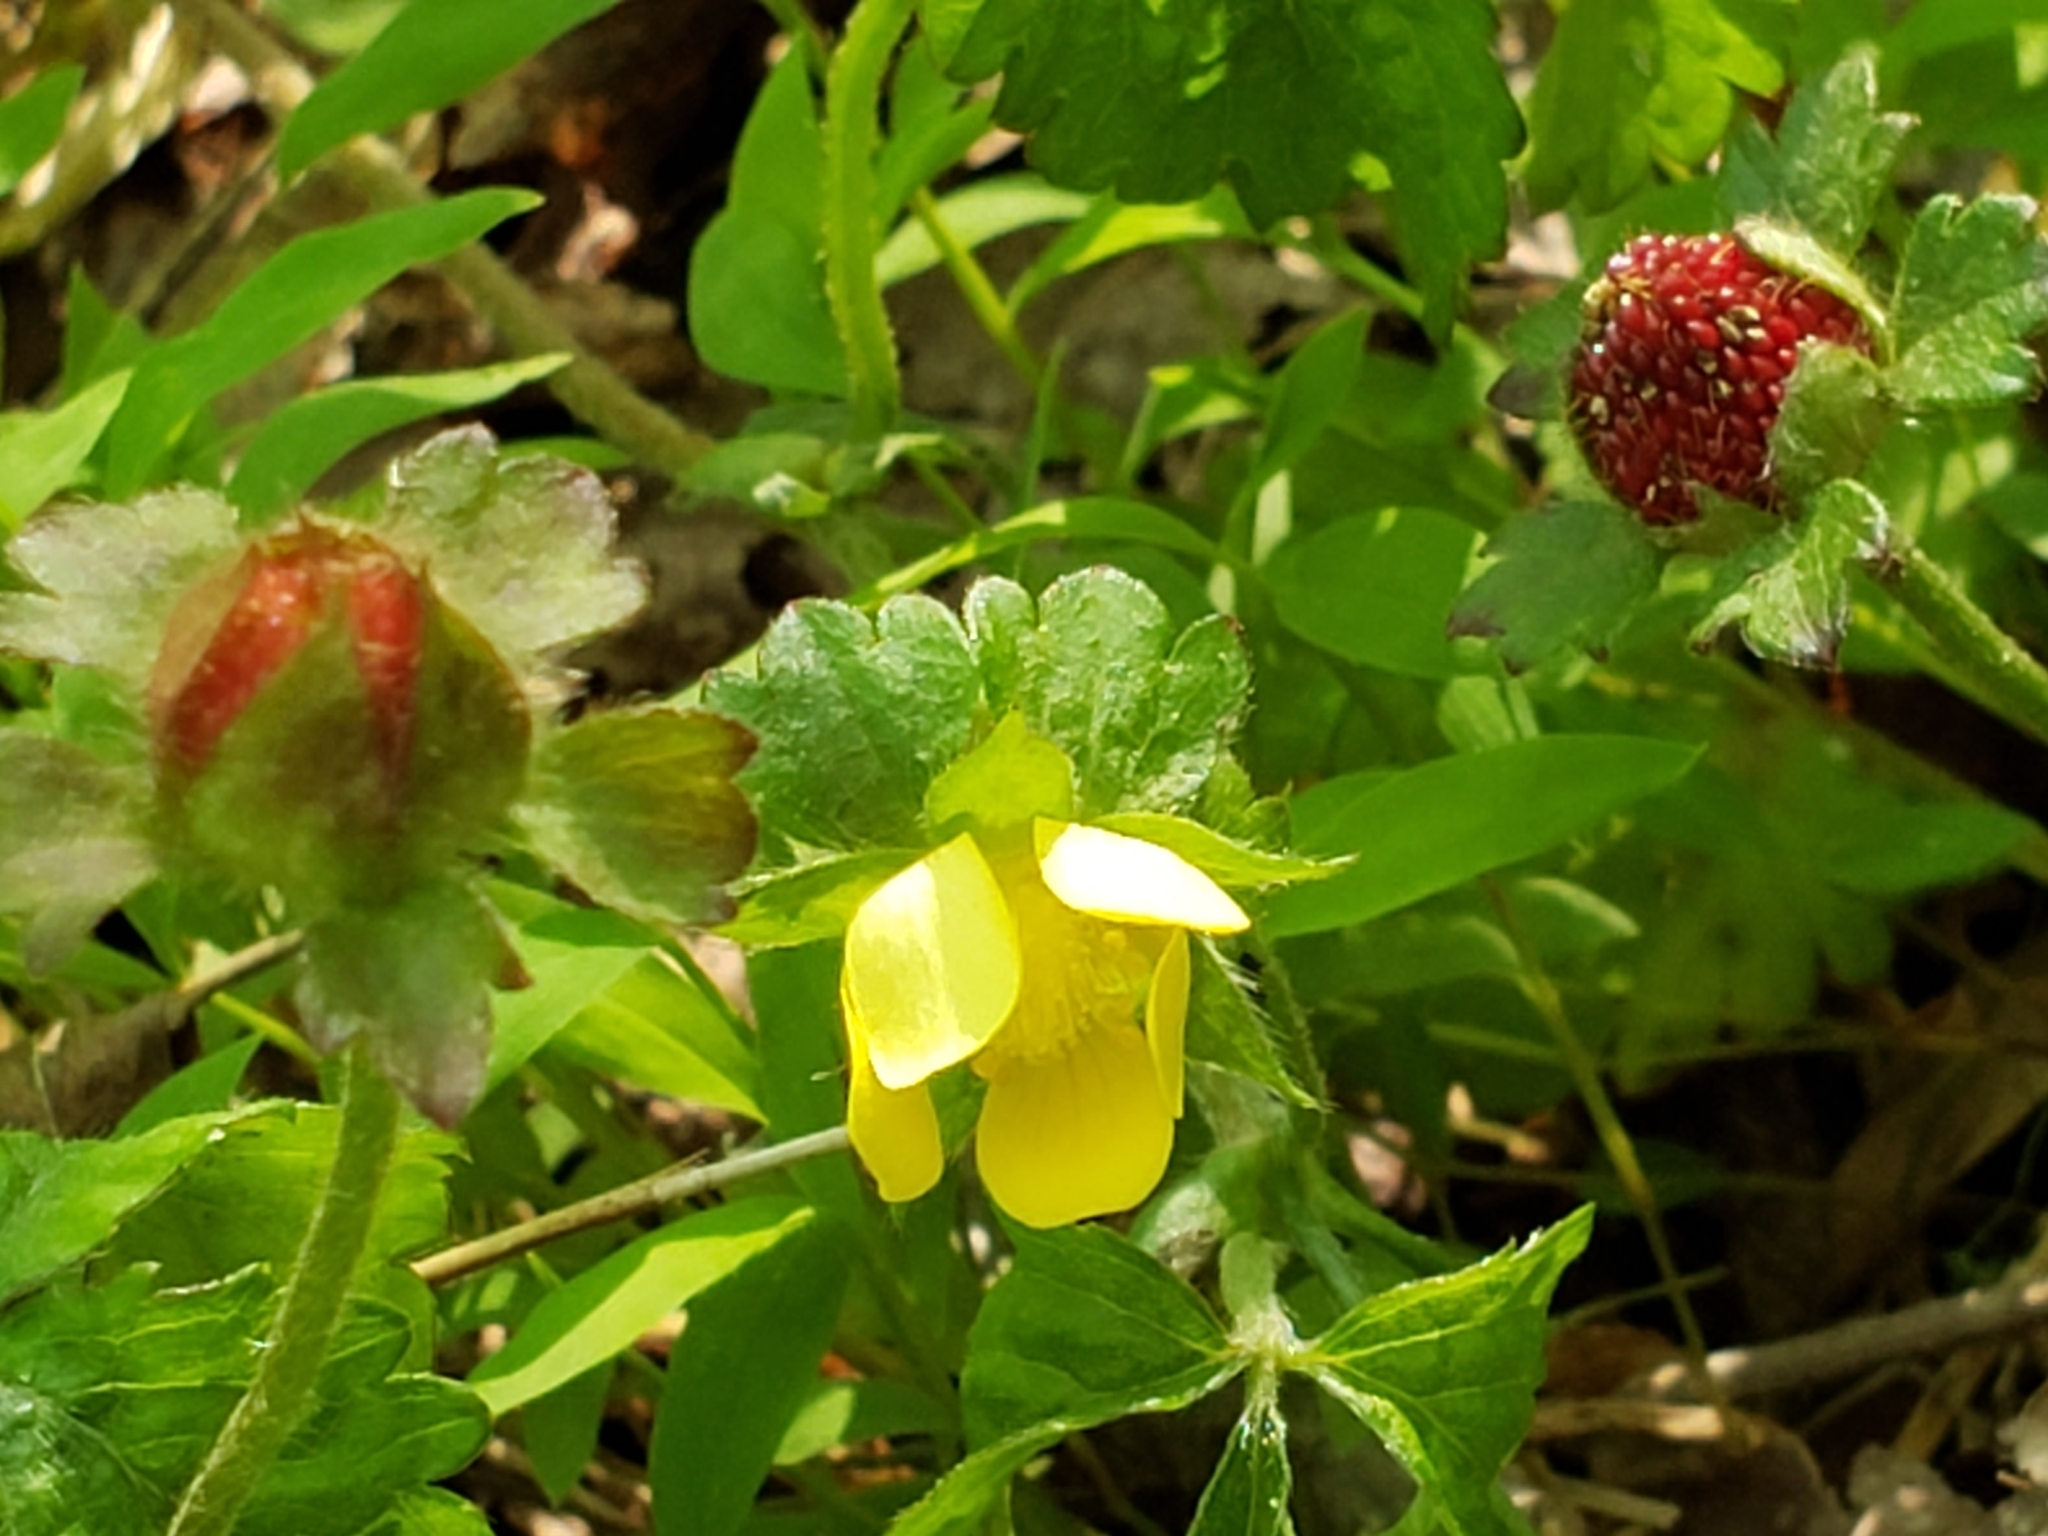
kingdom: Plantae
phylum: Tracheophyta
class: Magnoliopsida
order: Rosales
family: Rosaceae
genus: Potentilla
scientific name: Potentilla indica
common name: Yellow-flowered strawberry
